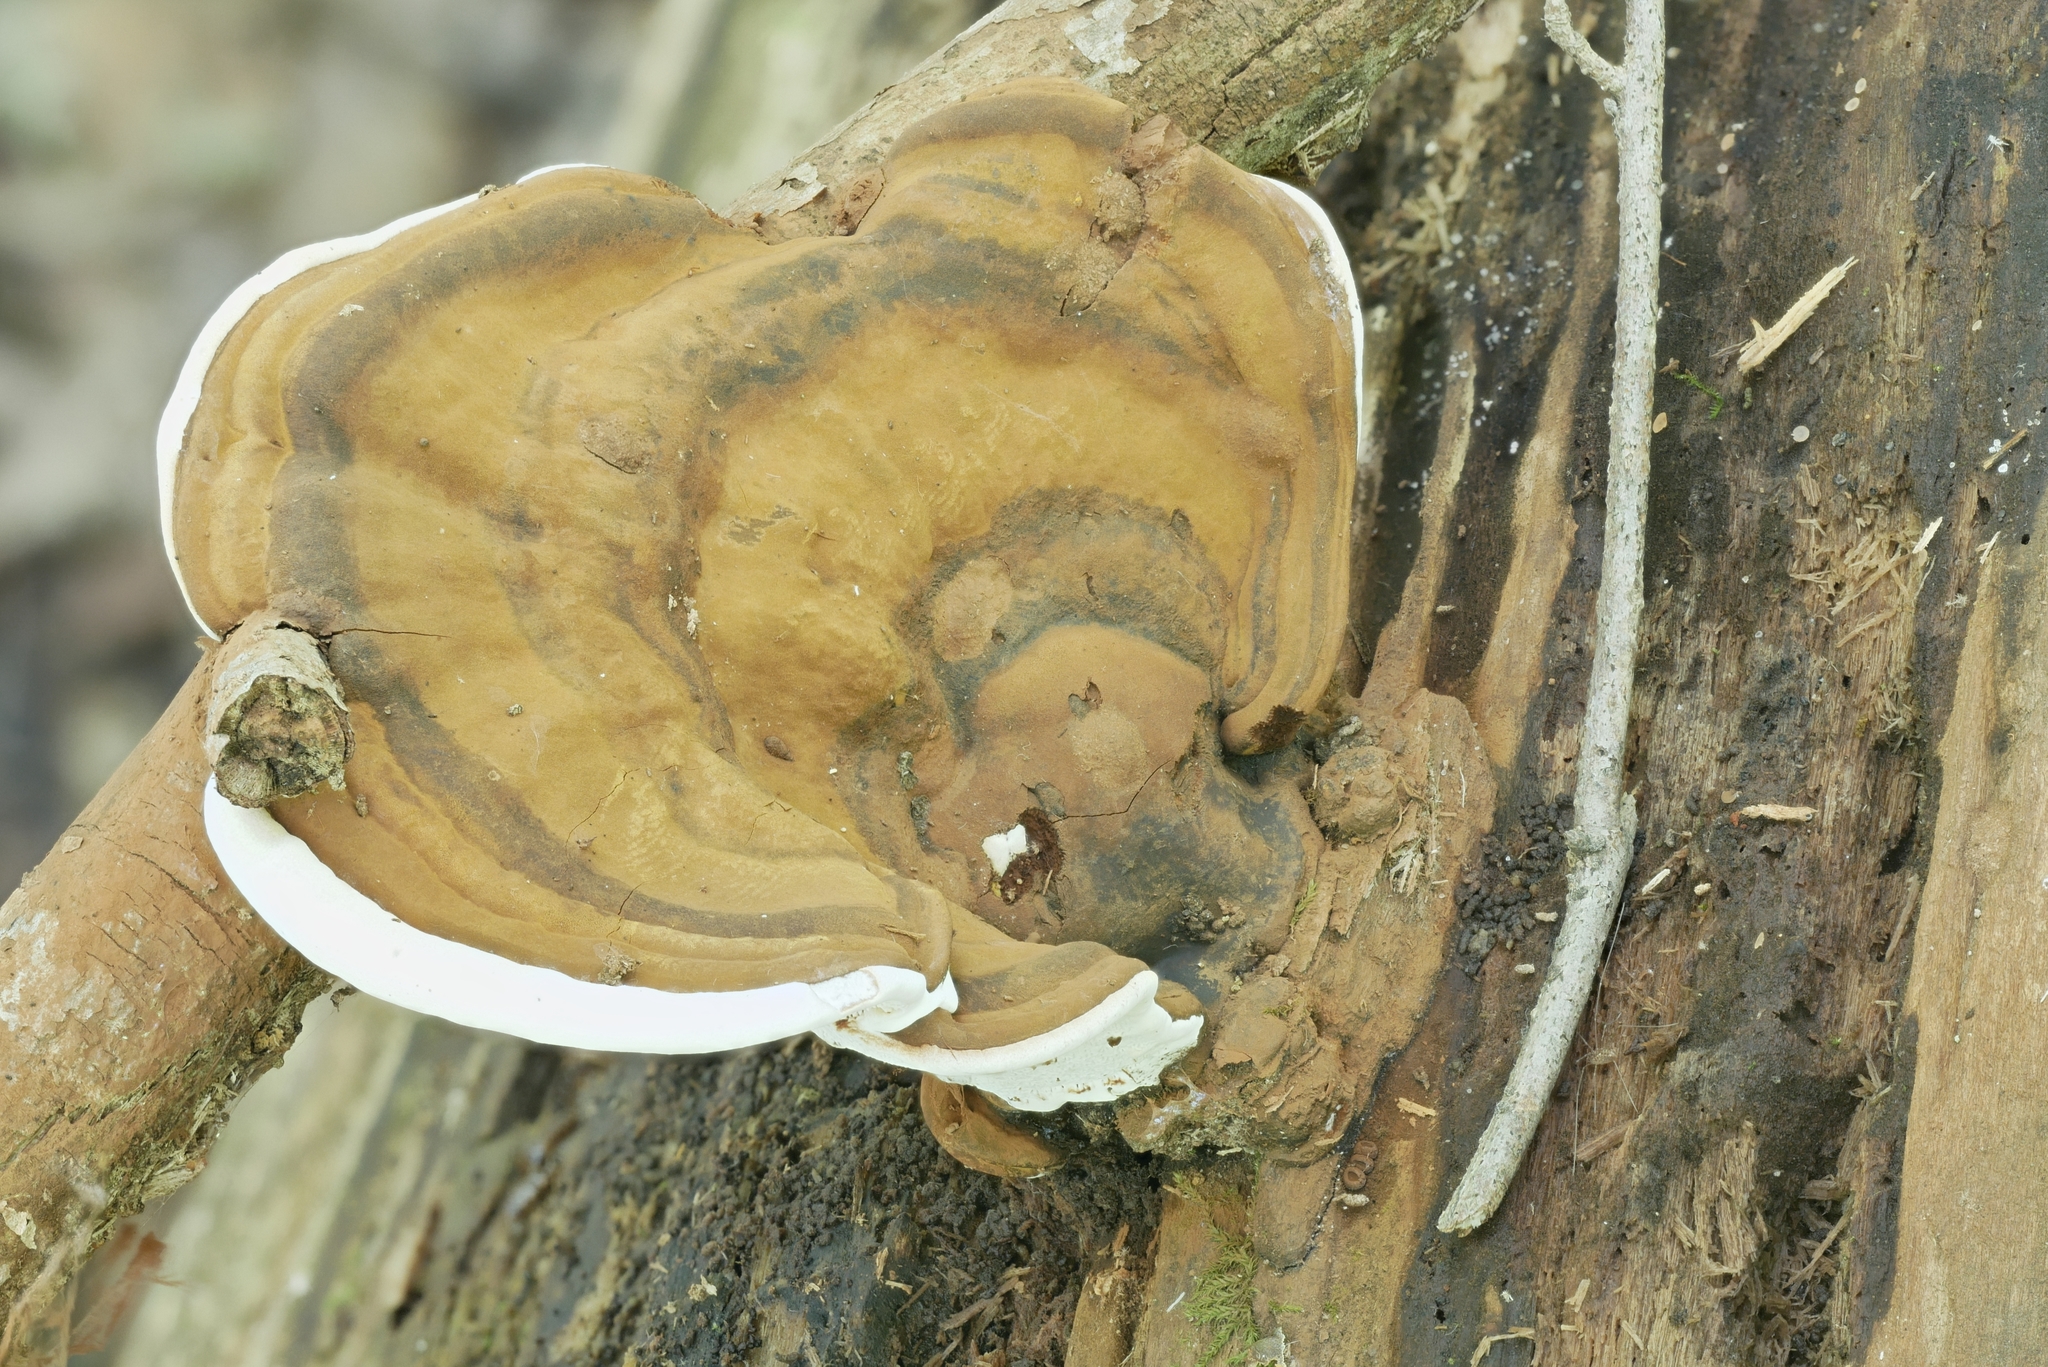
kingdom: Fungi
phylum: Basidiomycota
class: Agaricomycetes
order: Polyporales
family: Polyporaceae
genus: Ganoderma
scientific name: Ganoderma lobatum
